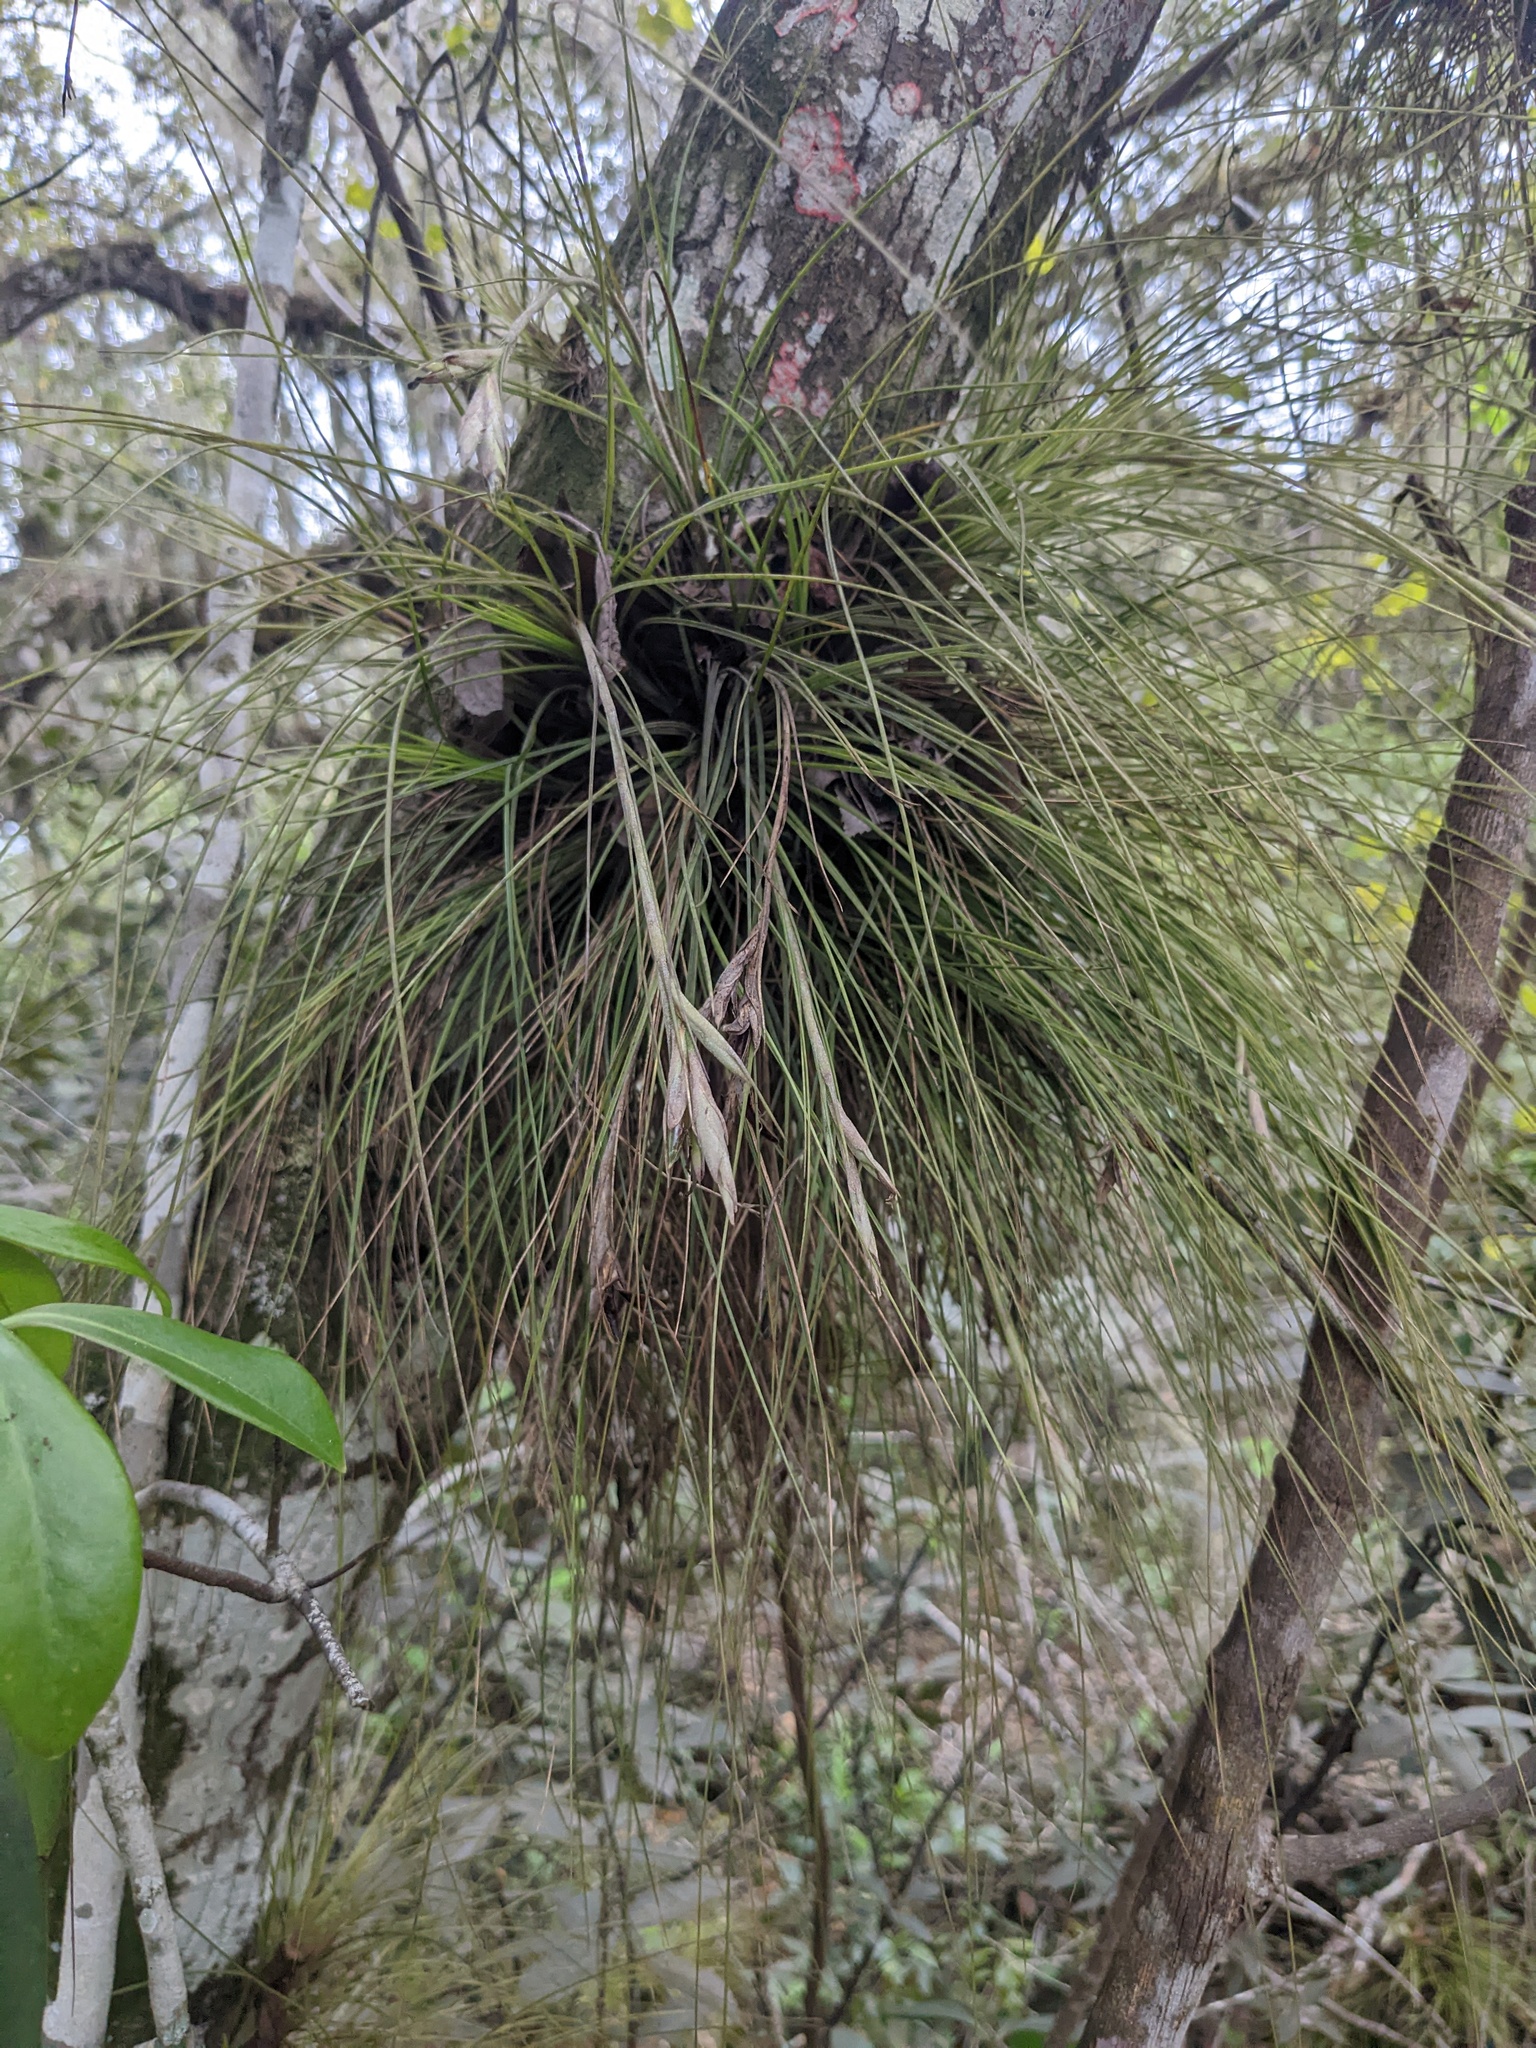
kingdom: Plantae
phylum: Tracheophyta
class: Liliopsida
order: Poales
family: Bromeliaceae
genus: Tillandsia
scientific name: Tillandsia setacea
